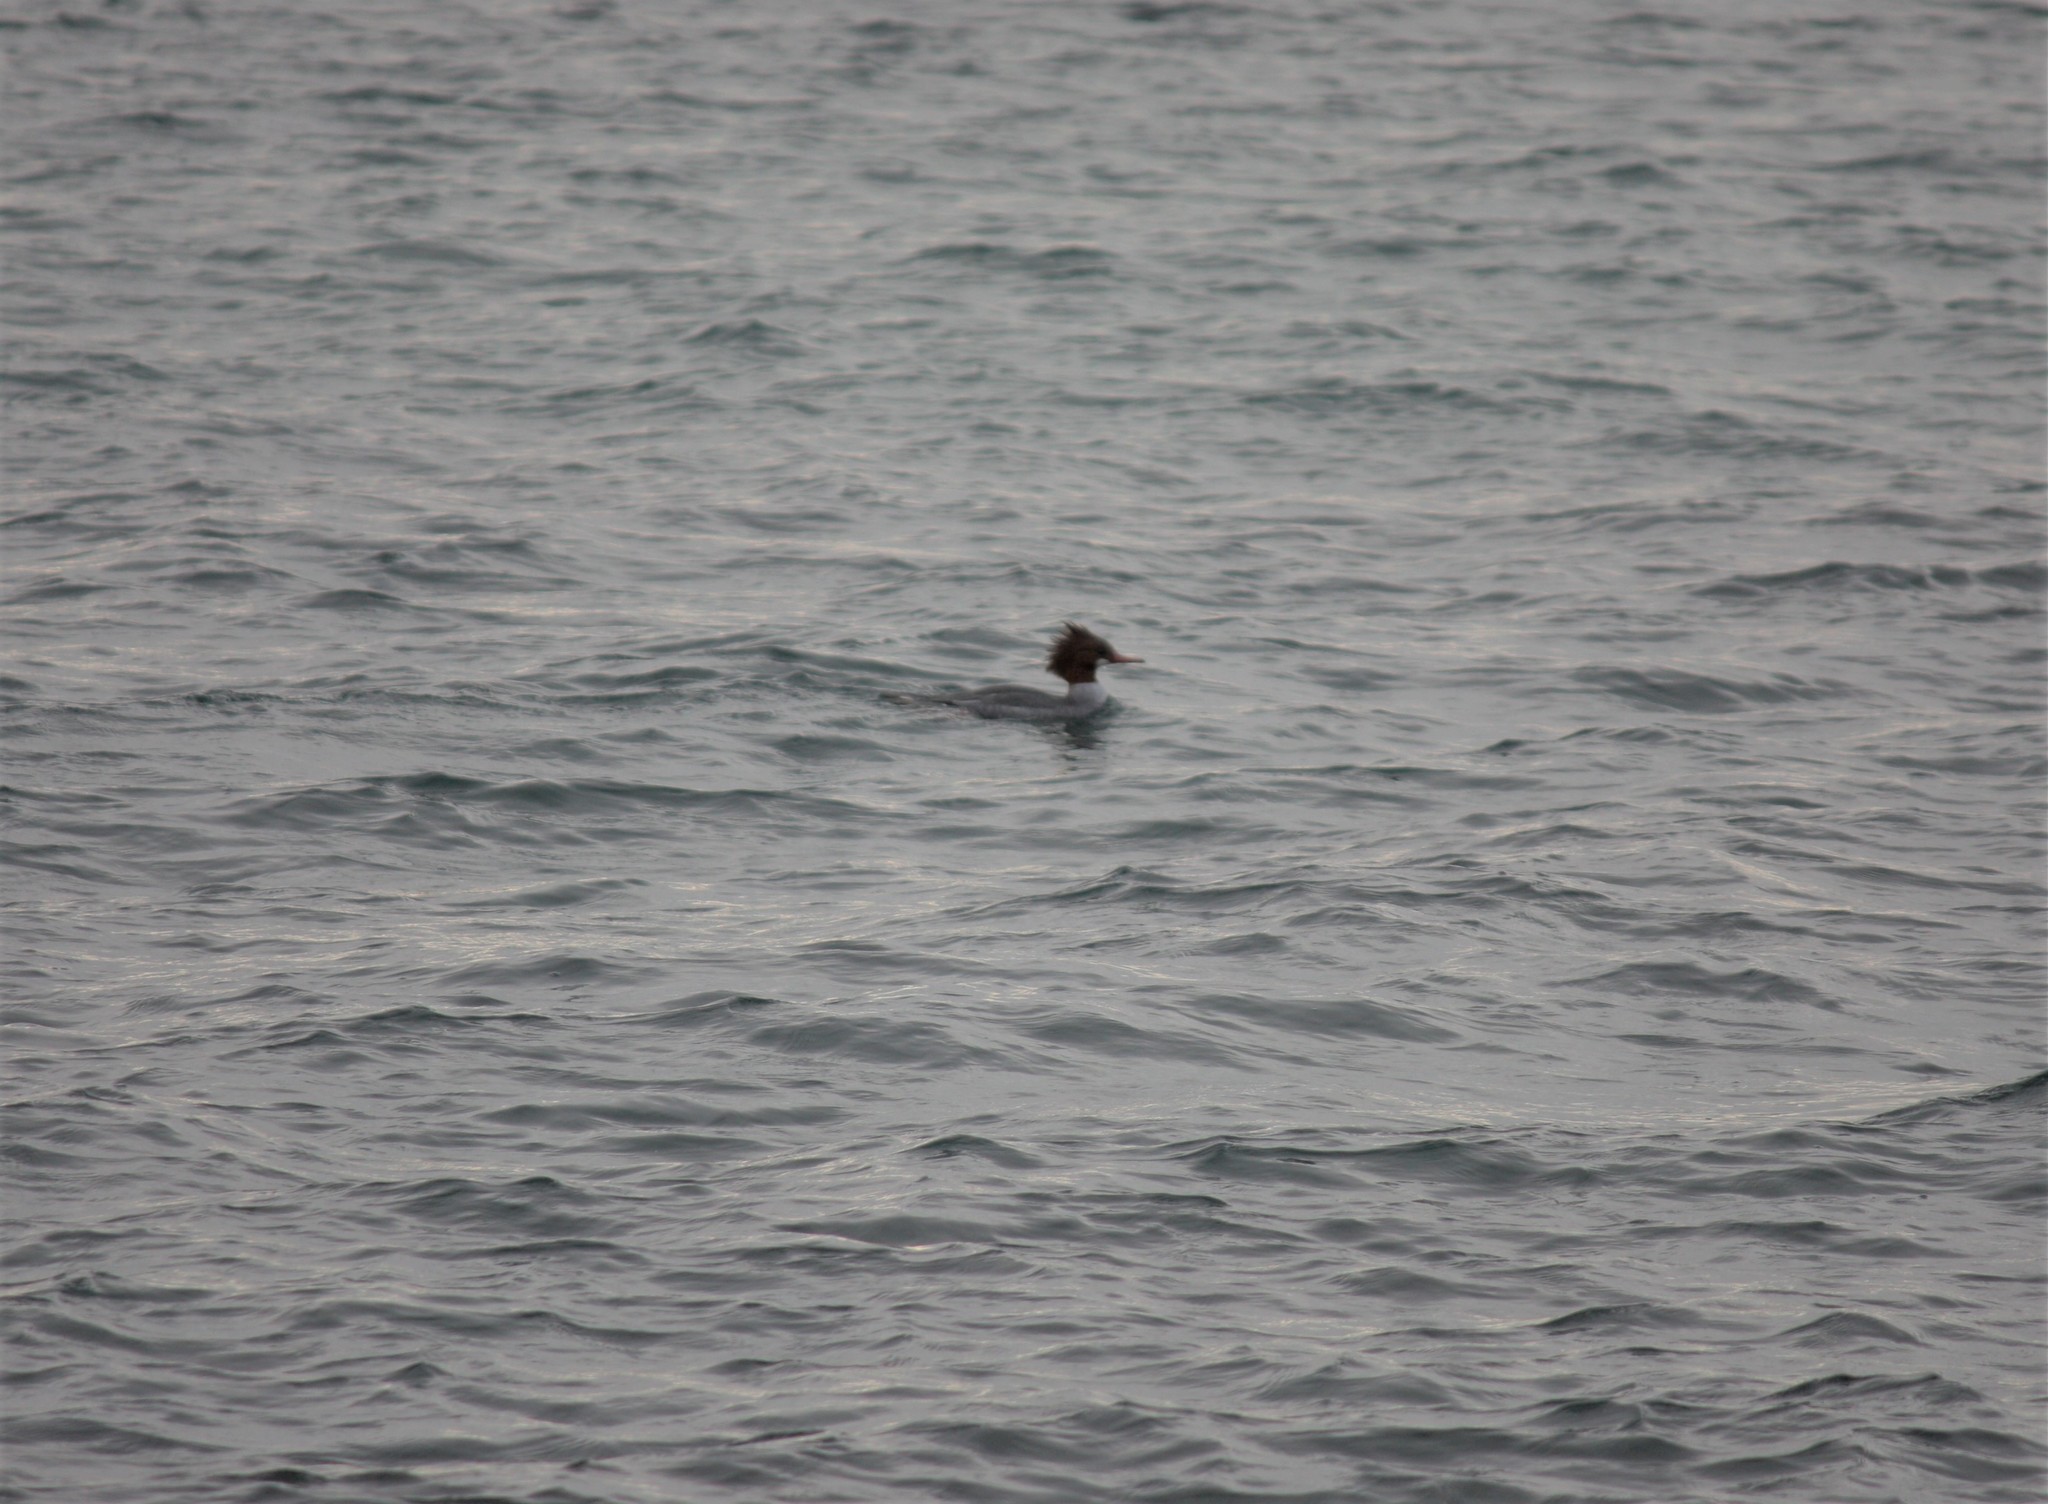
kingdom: Animalia
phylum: Chordata
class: Aves
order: Anseriformes
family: Anatidae
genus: Mergus
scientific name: Mergus merganser
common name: Common merganser
